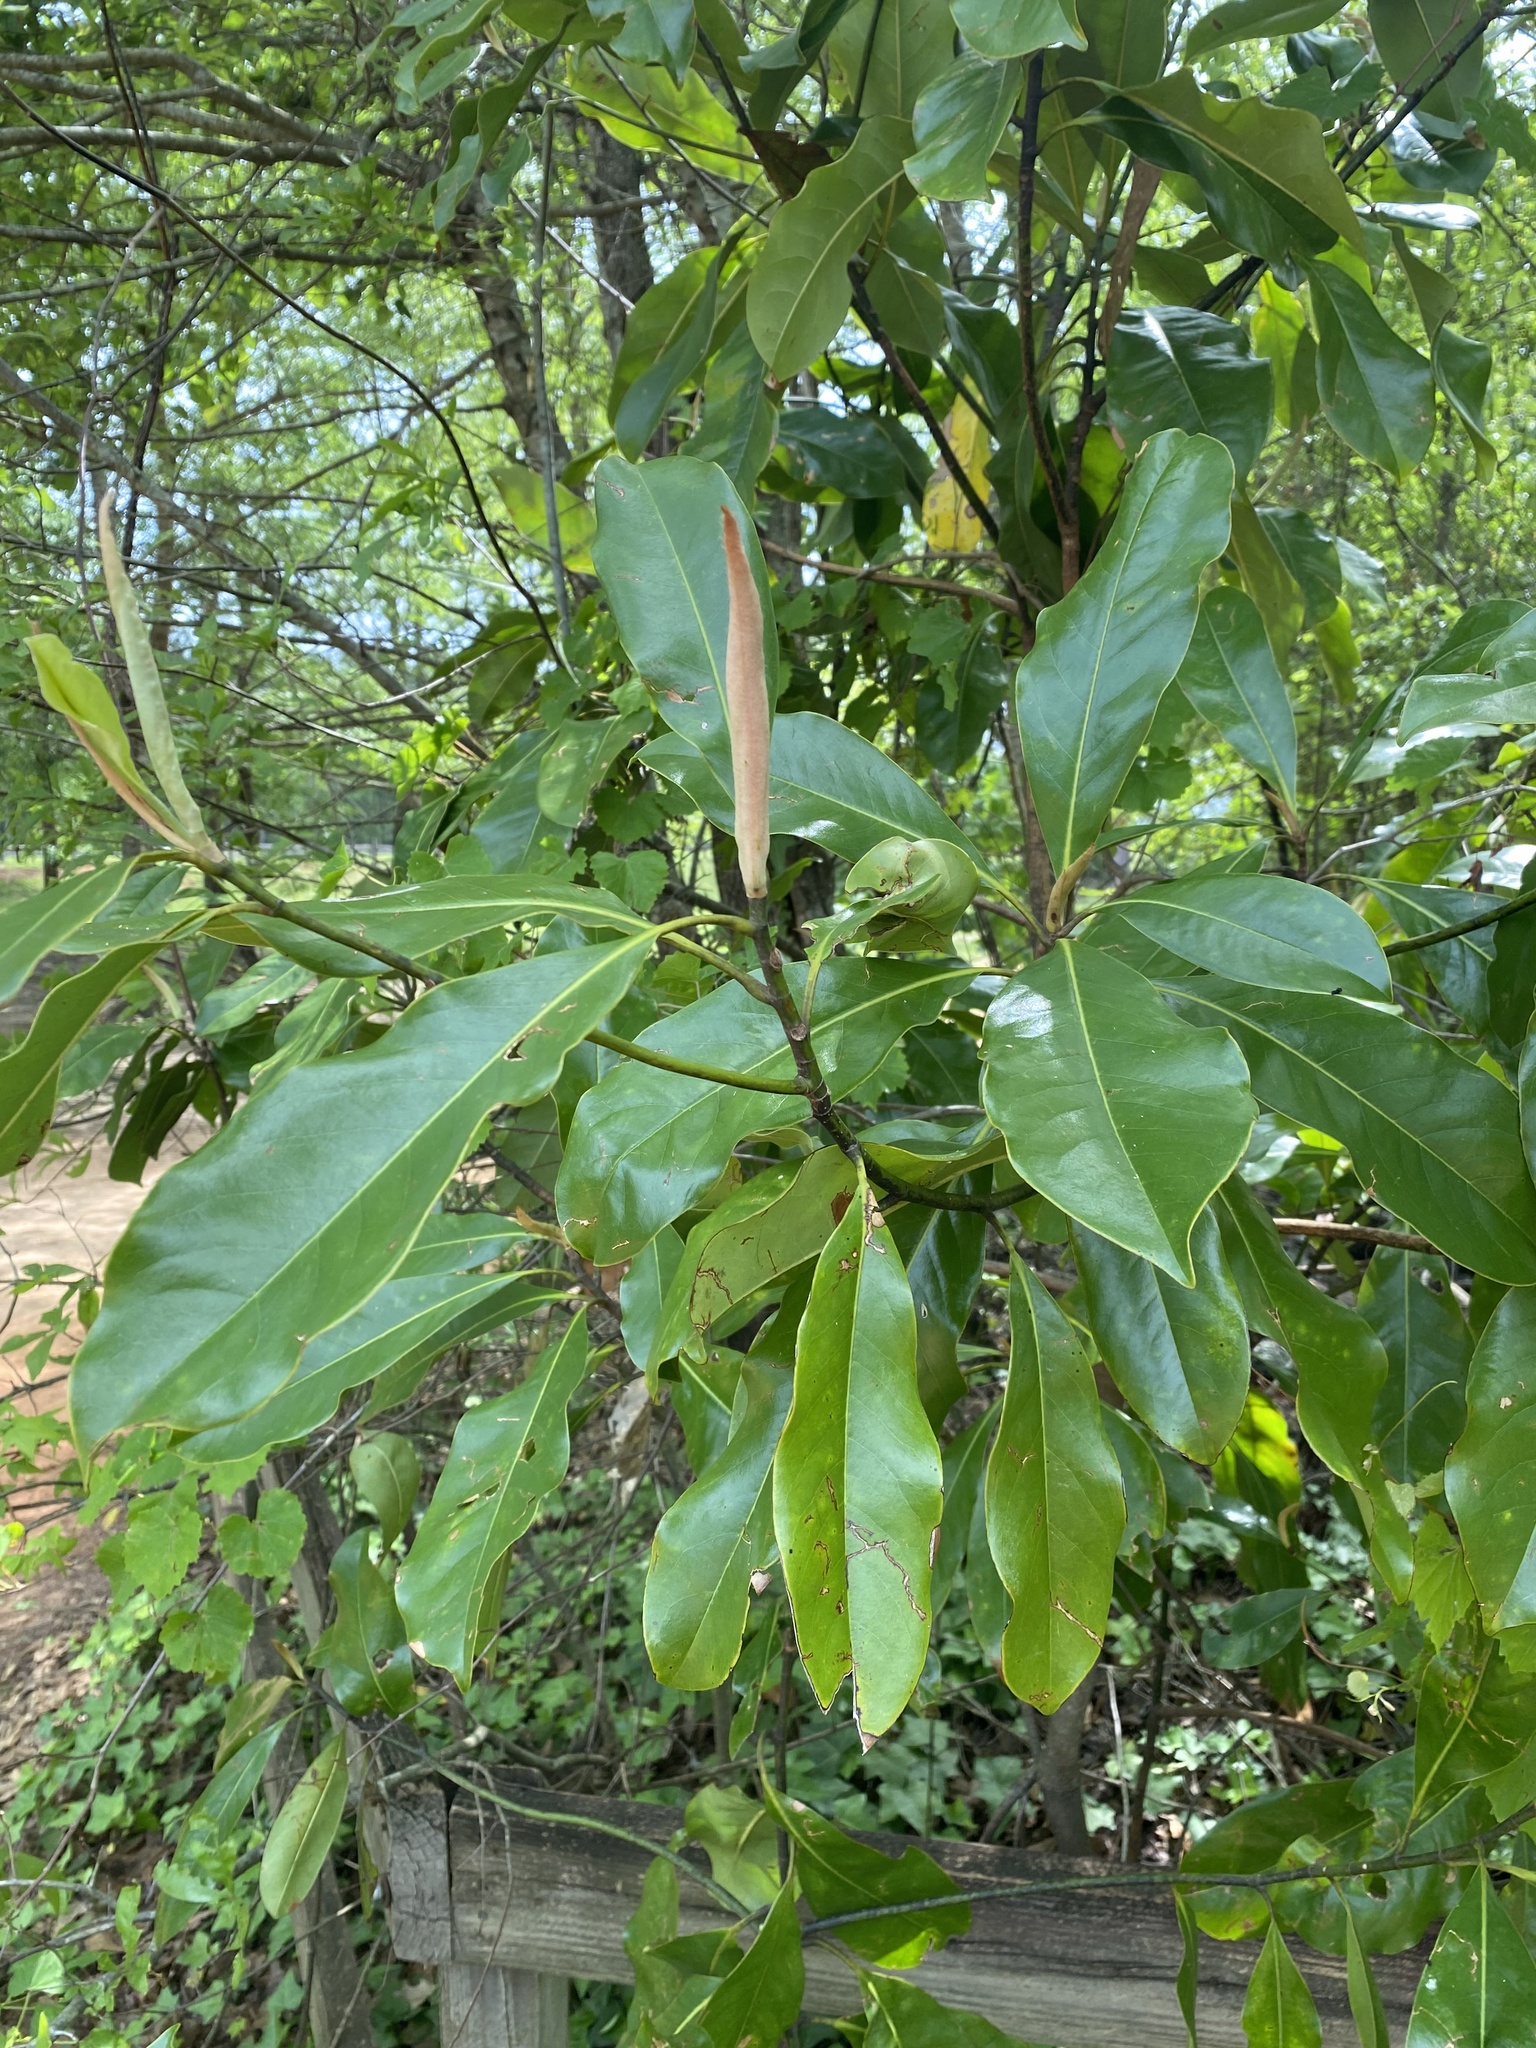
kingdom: Plantae
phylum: Tracheophyta
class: Magnoliopsida
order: Magnoliales
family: Magnoliaceae
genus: Magnolia
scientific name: Magnolia grandiflora
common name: Southern magnolia
